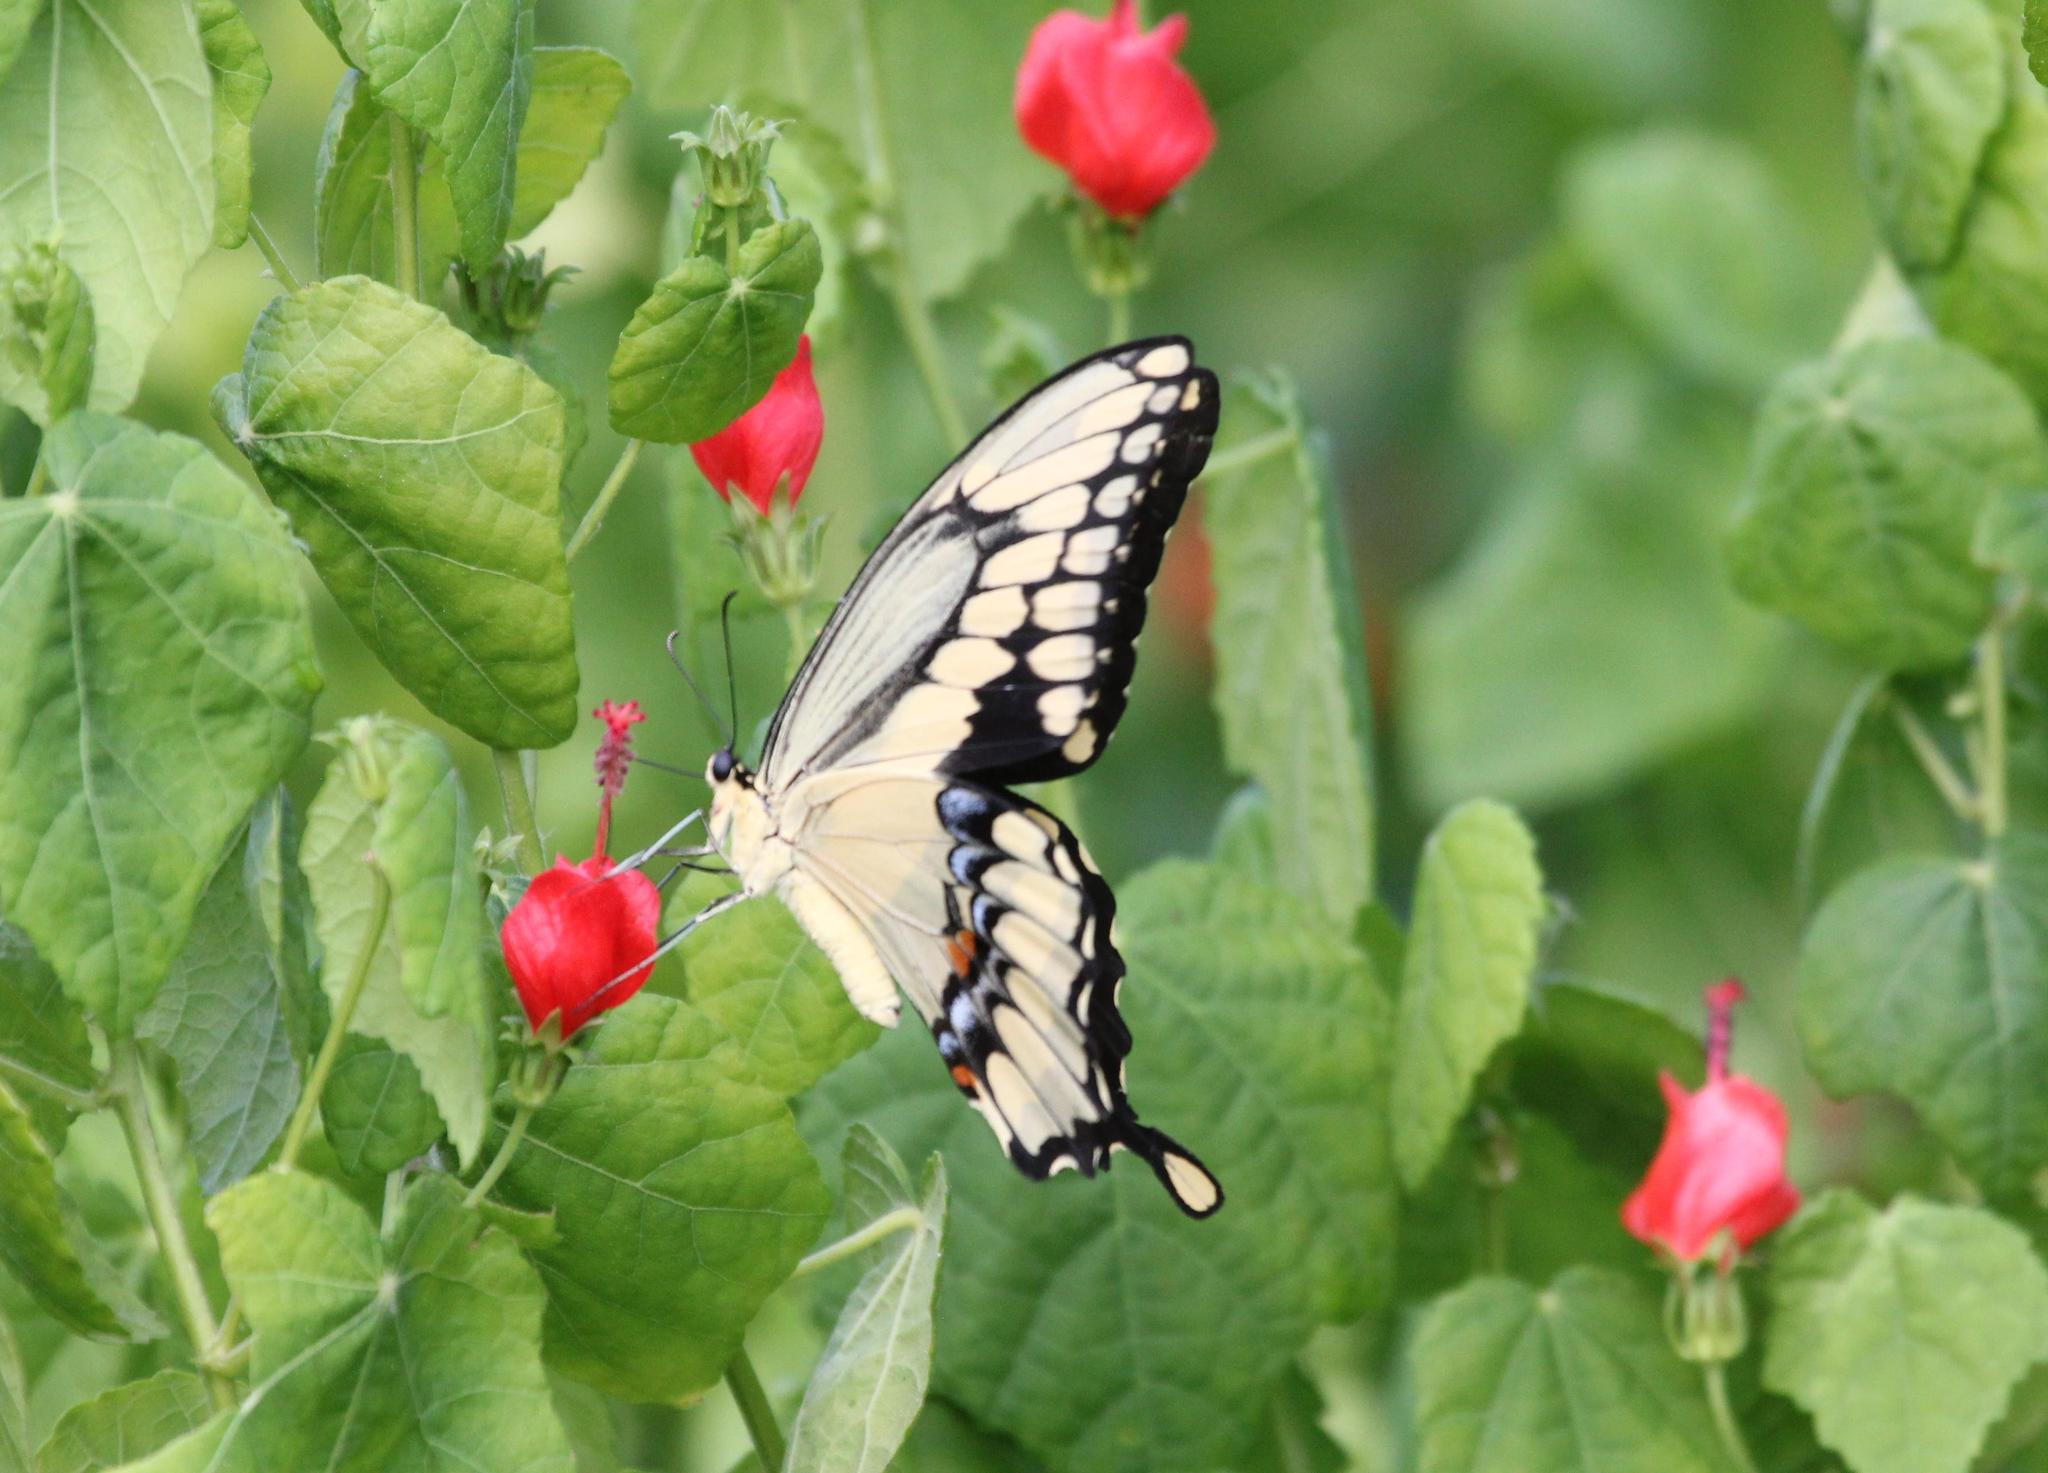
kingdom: Animalia
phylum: Arthropoda
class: Insecta
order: Lepidoptera
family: Papilionidae
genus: Papilio
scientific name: Papilio cresphontes
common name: Giant swallowtail
